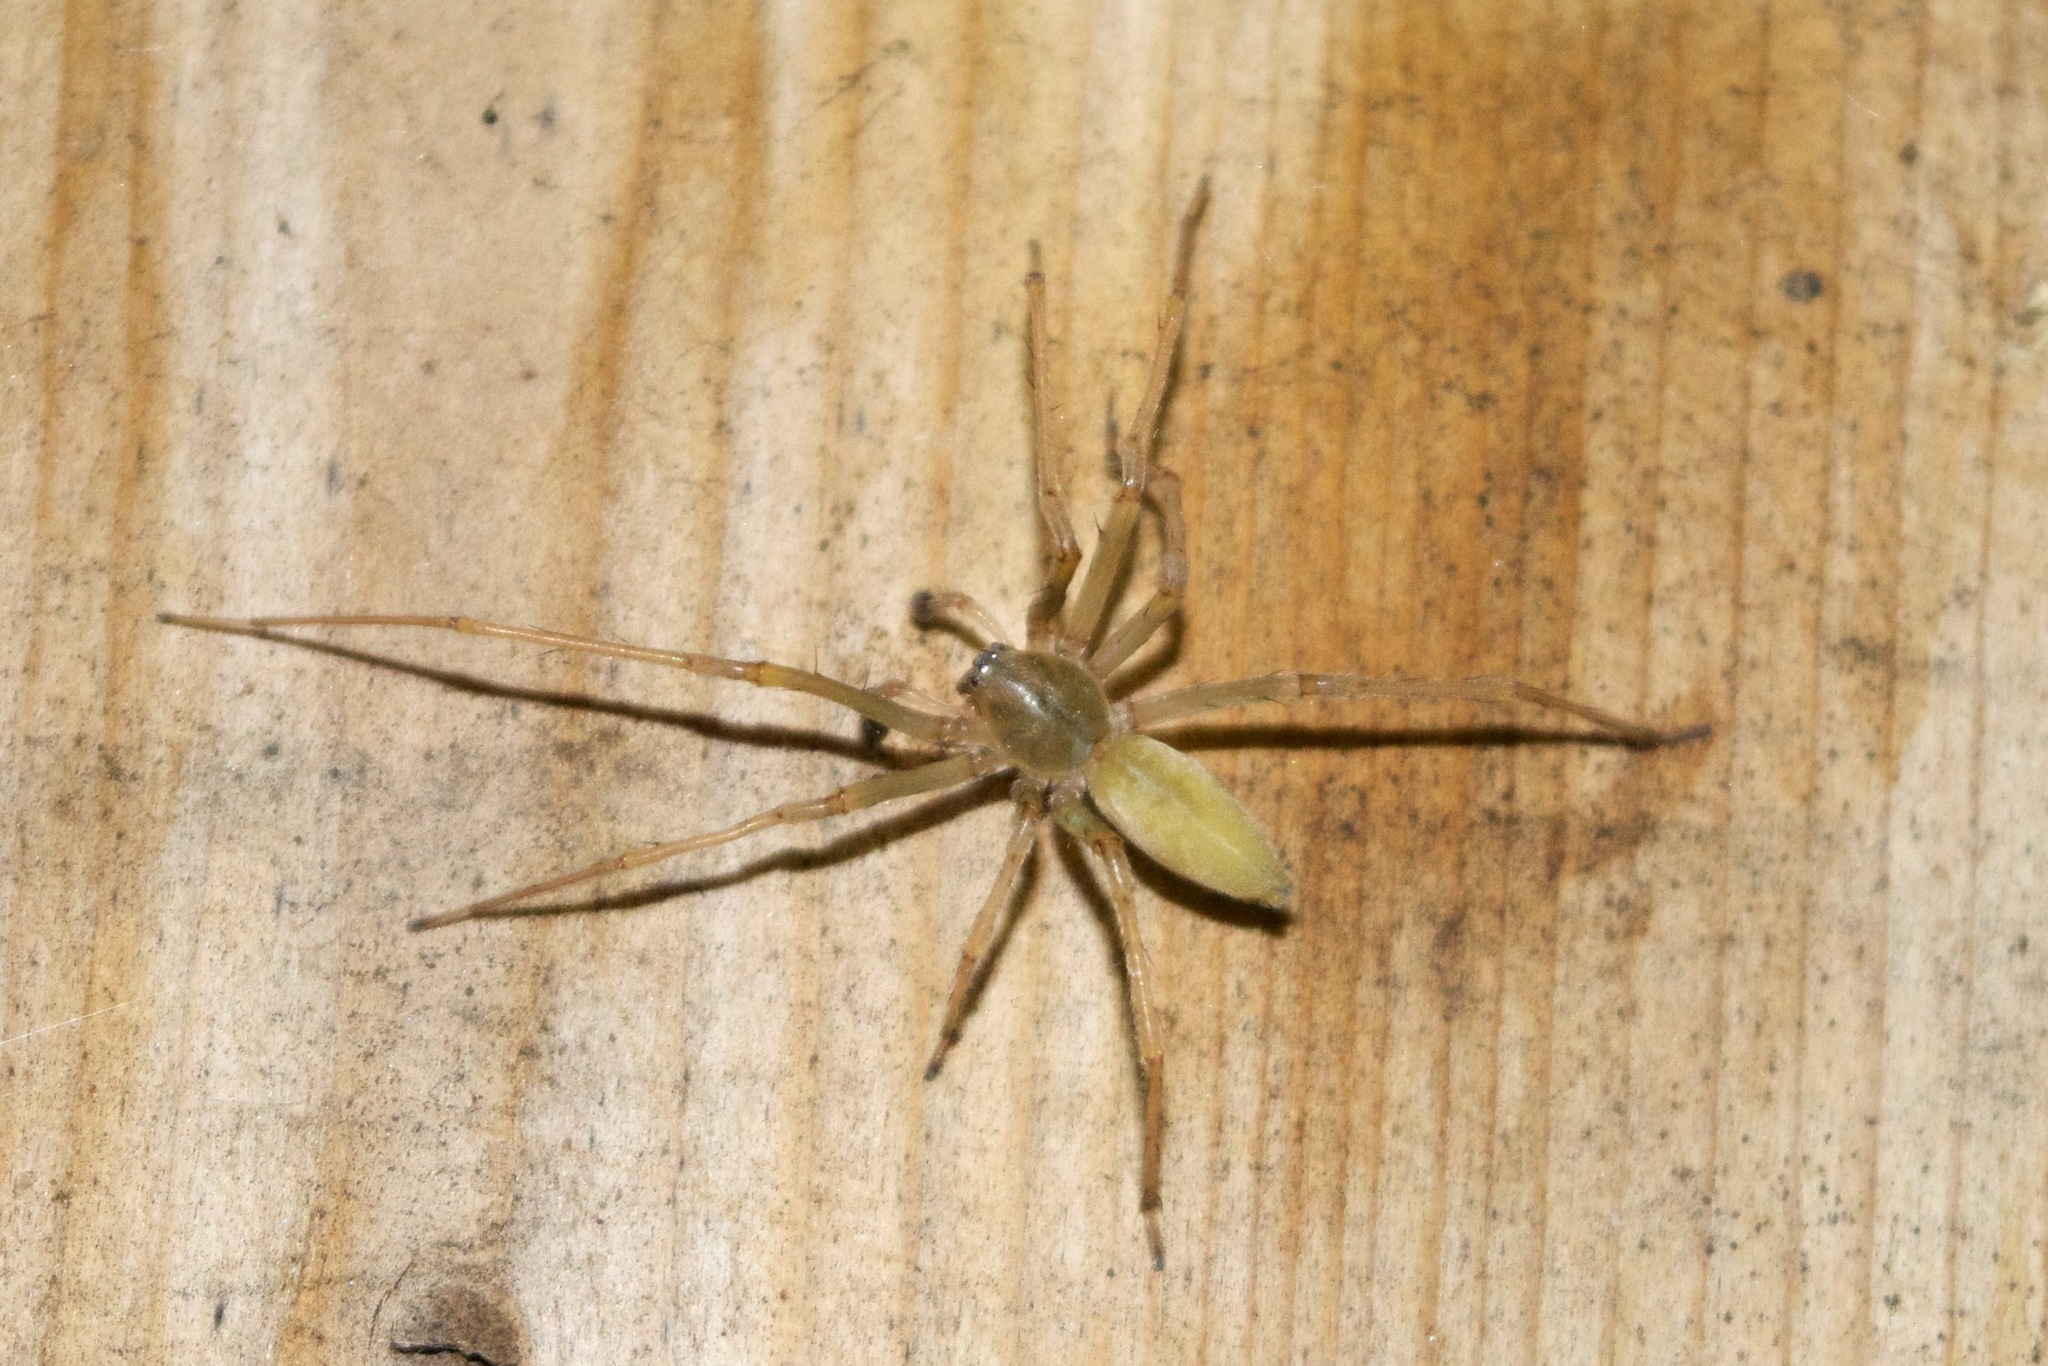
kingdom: Animalia
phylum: Arthropoda
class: Arachnida
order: Araneae
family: Cheiracanthiidae
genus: Cheiracanthium
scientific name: Cheiracanthium mildei
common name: Northern yellow sac spider
